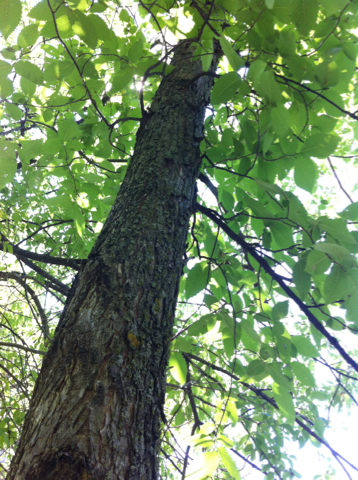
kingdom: Plantae
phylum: Tracheophyta
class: Magnoliopsida
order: Rosales
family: Ulmaceae
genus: Ulmus
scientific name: Ulmus americana
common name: American elm
